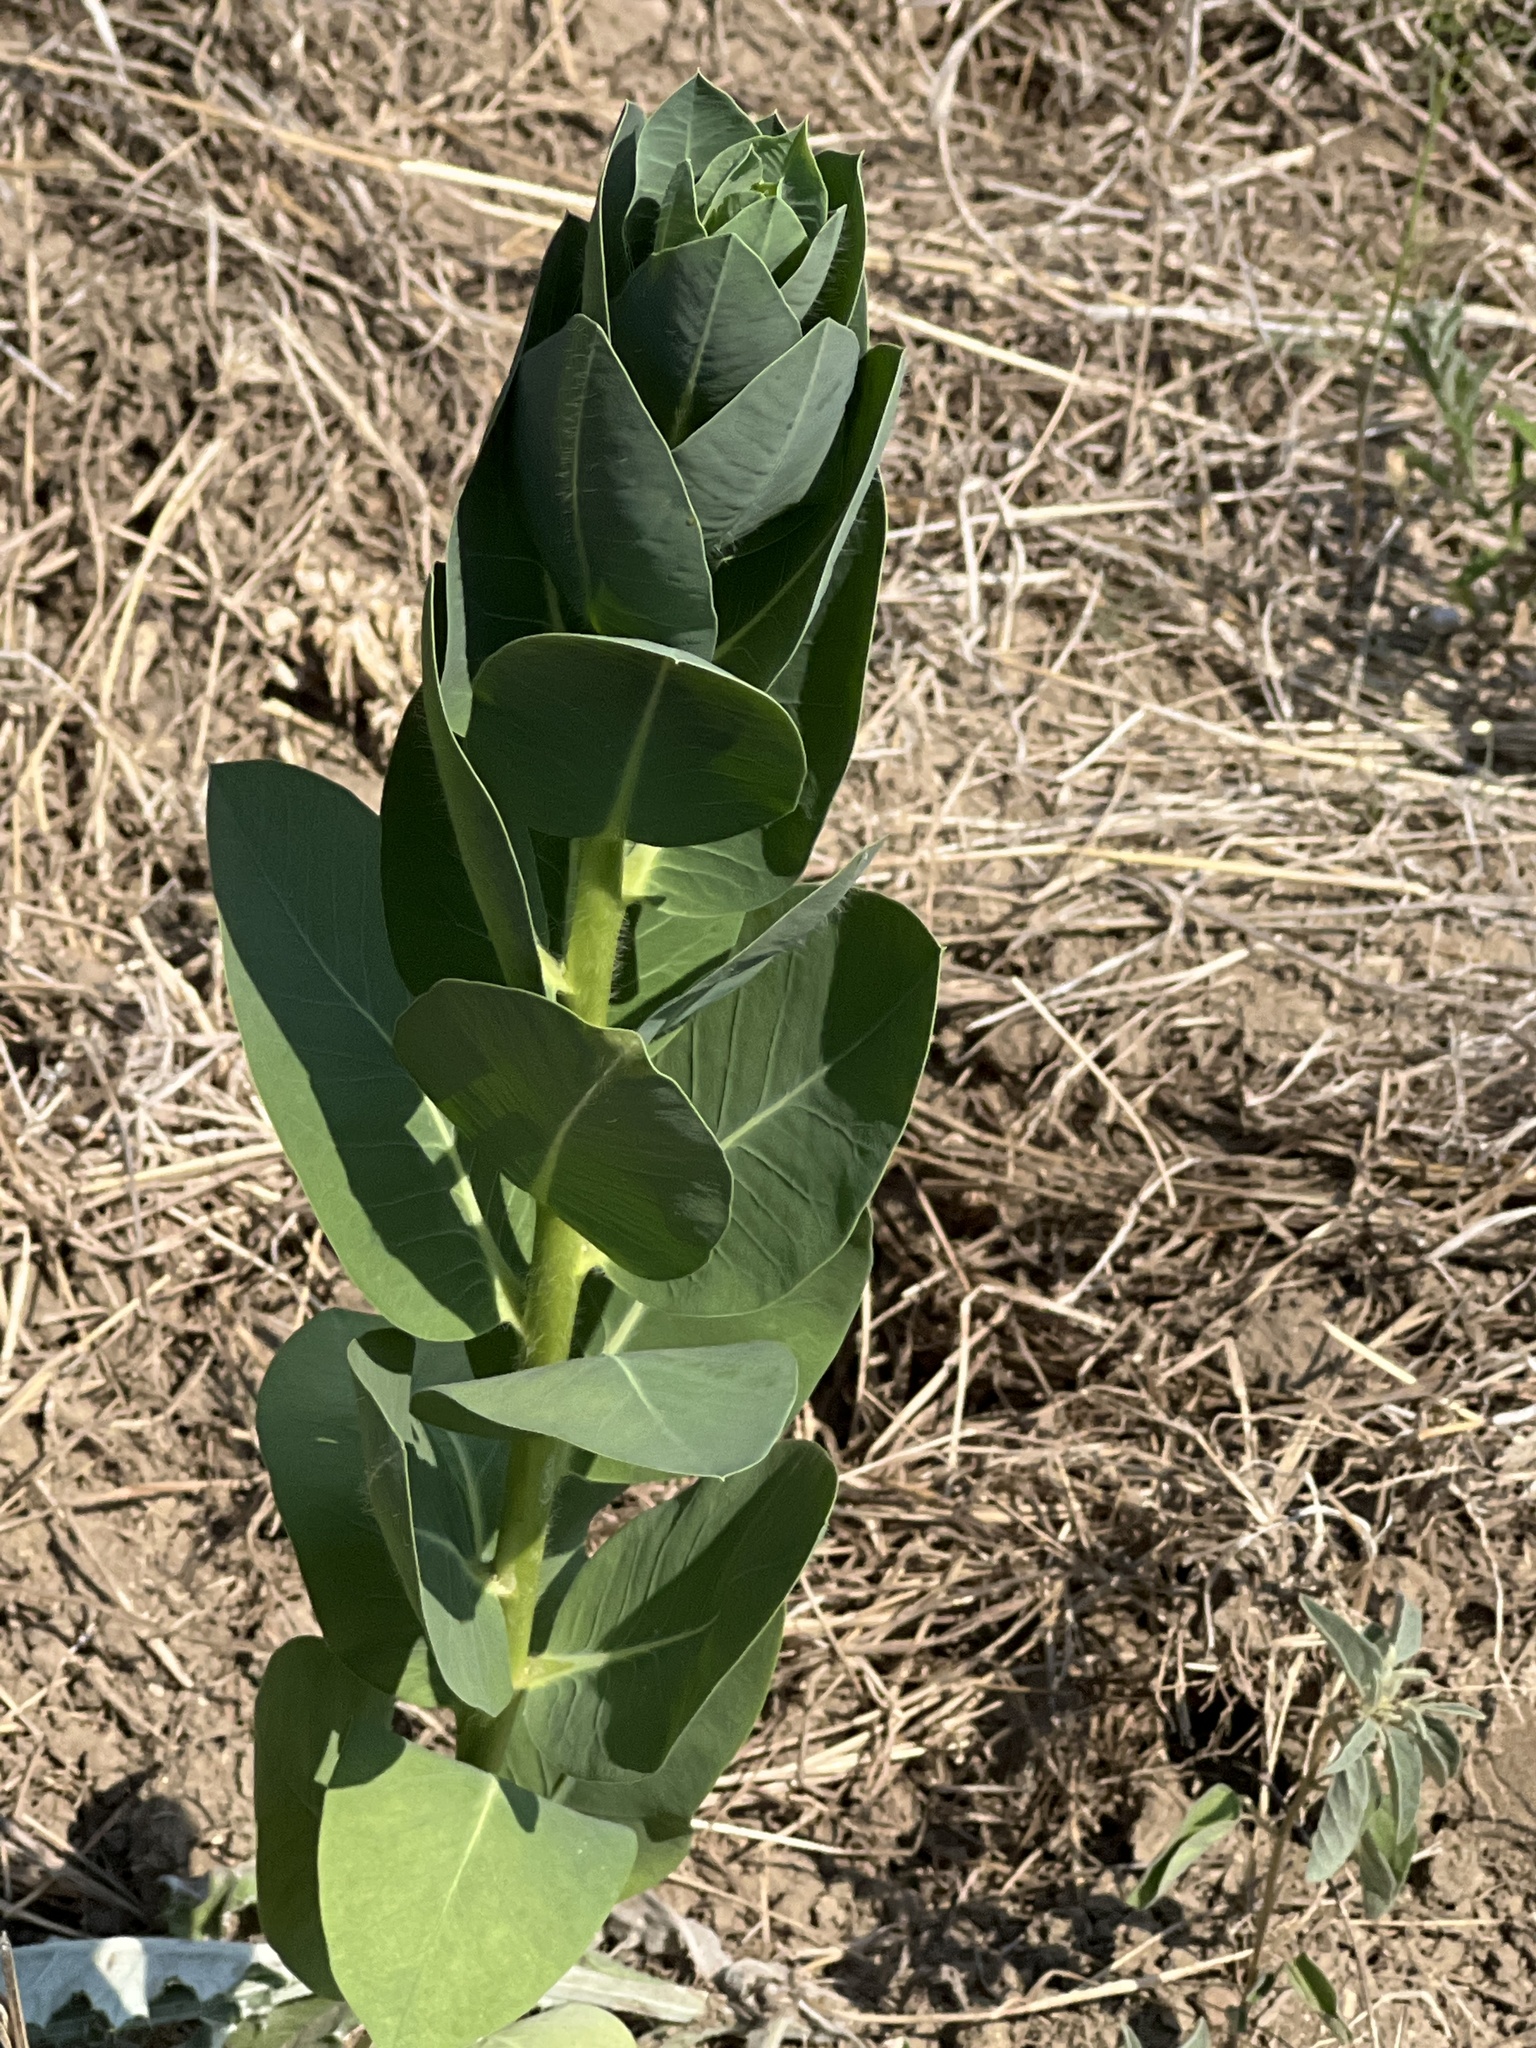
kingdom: Plantae
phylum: Tracheophyta
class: Magnoliopsida
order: Malpighiales
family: Euphorbiaceae
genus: Euphorbia
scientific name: Euphorbia marginata
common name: Ghostweed
